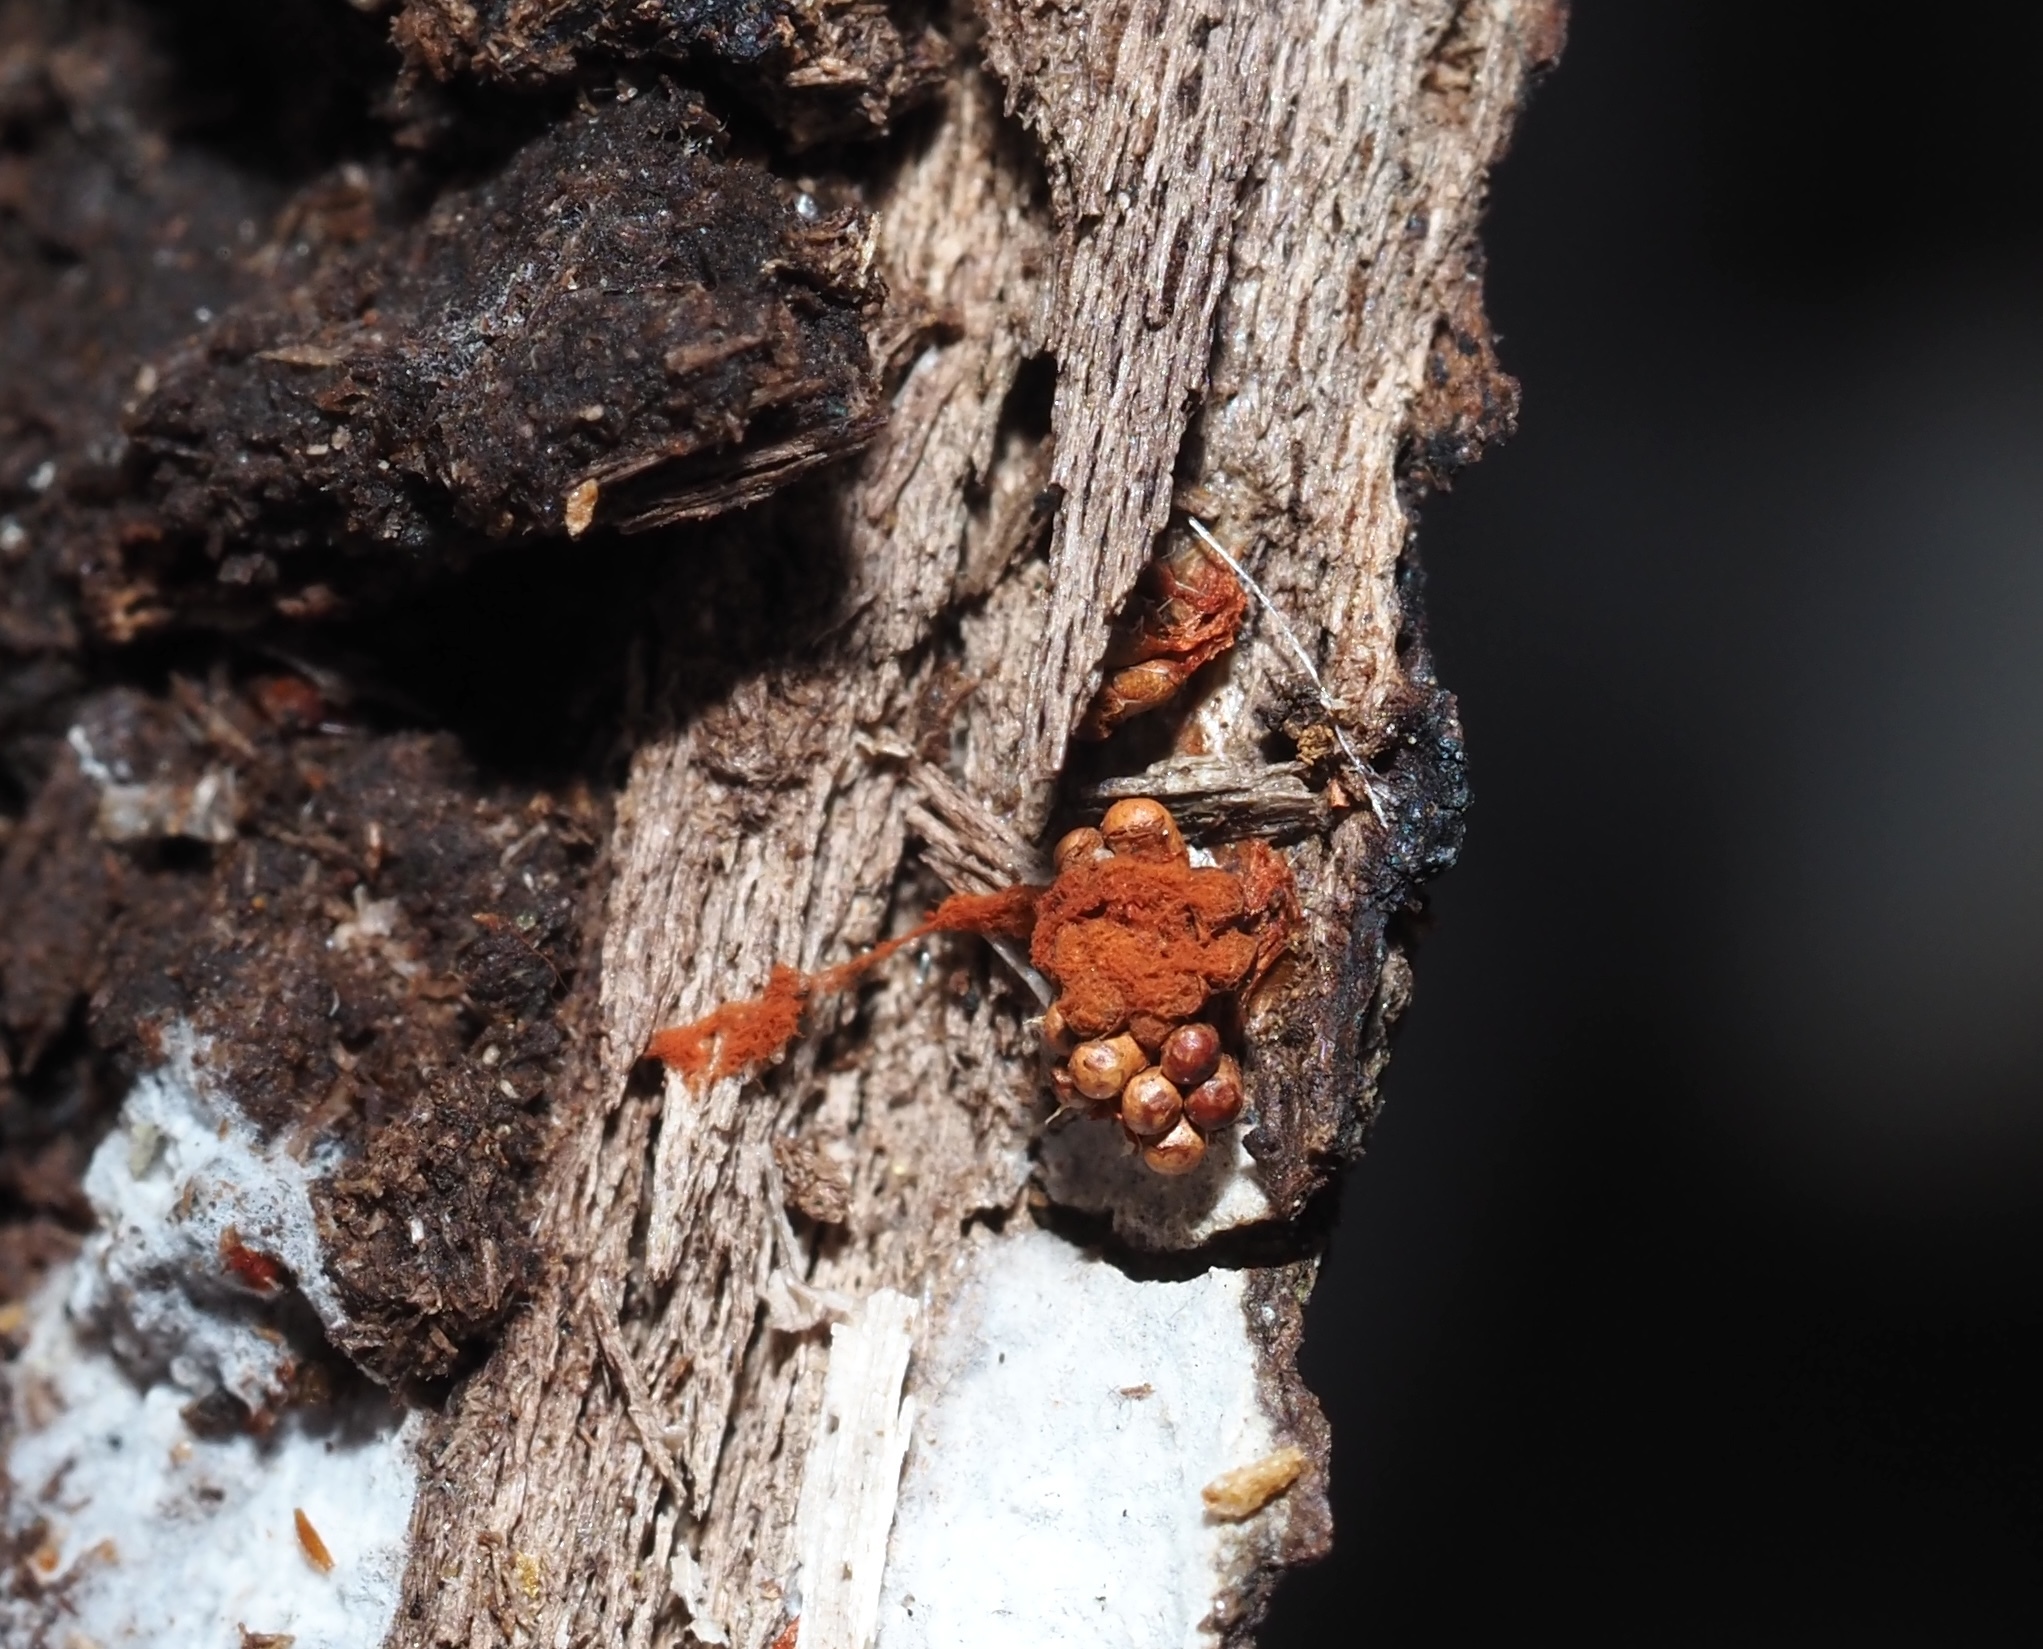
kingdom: Protozoa
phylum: Mycetozoa
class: Myxomycetes
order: Trichiales
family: Trichiaceae
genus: Metatrichia
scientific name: Metatrichia vesparia
